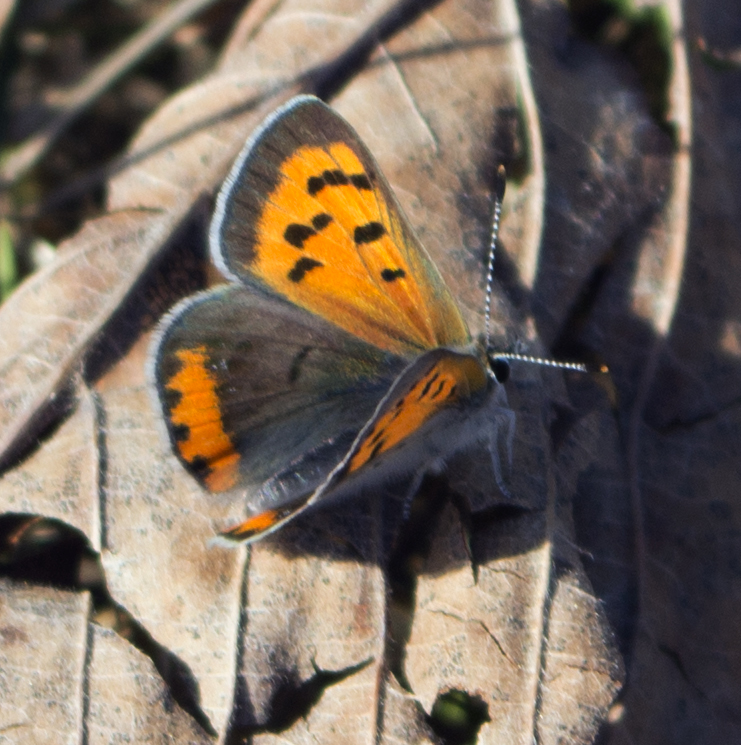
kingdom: Animalia
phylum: Arthropoda
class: Insecta
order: Lepidoptera
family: Lycaenidae
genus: Lycaena
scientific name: Lycaena hypophlaeas
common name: American copper
